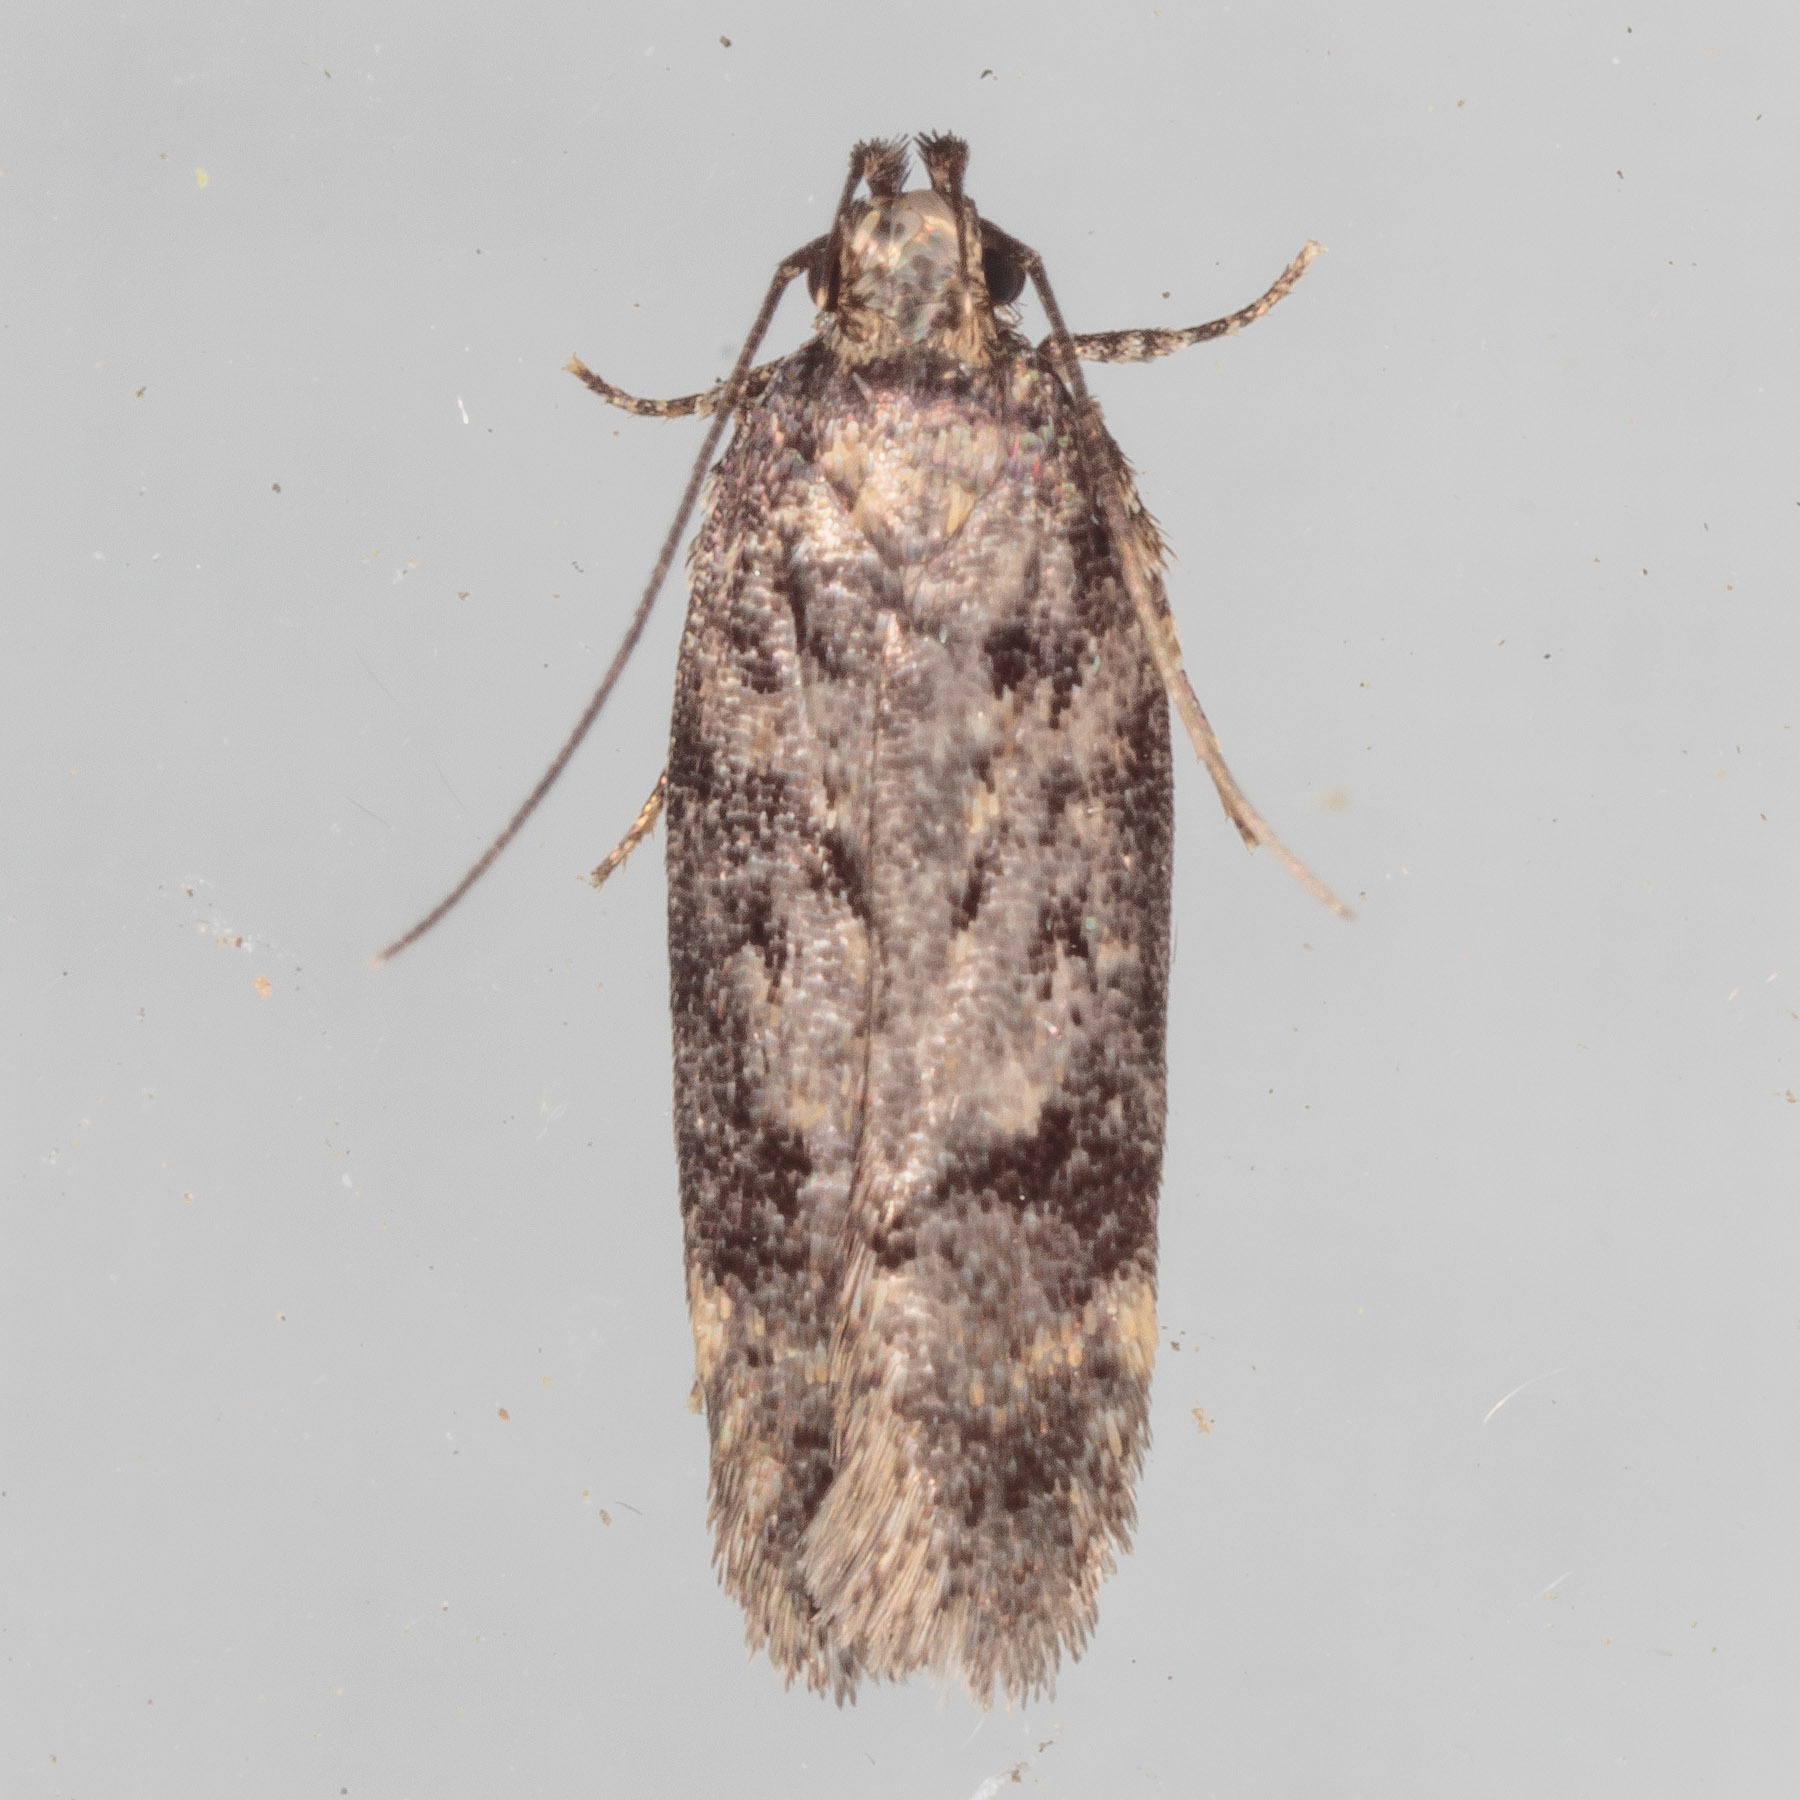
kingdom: Animalia
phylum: Arthropoda
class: Insecta
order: Lepidoptera
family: Gelechiidae
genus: Chionodes
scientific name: Chionodes thoraceochrella
